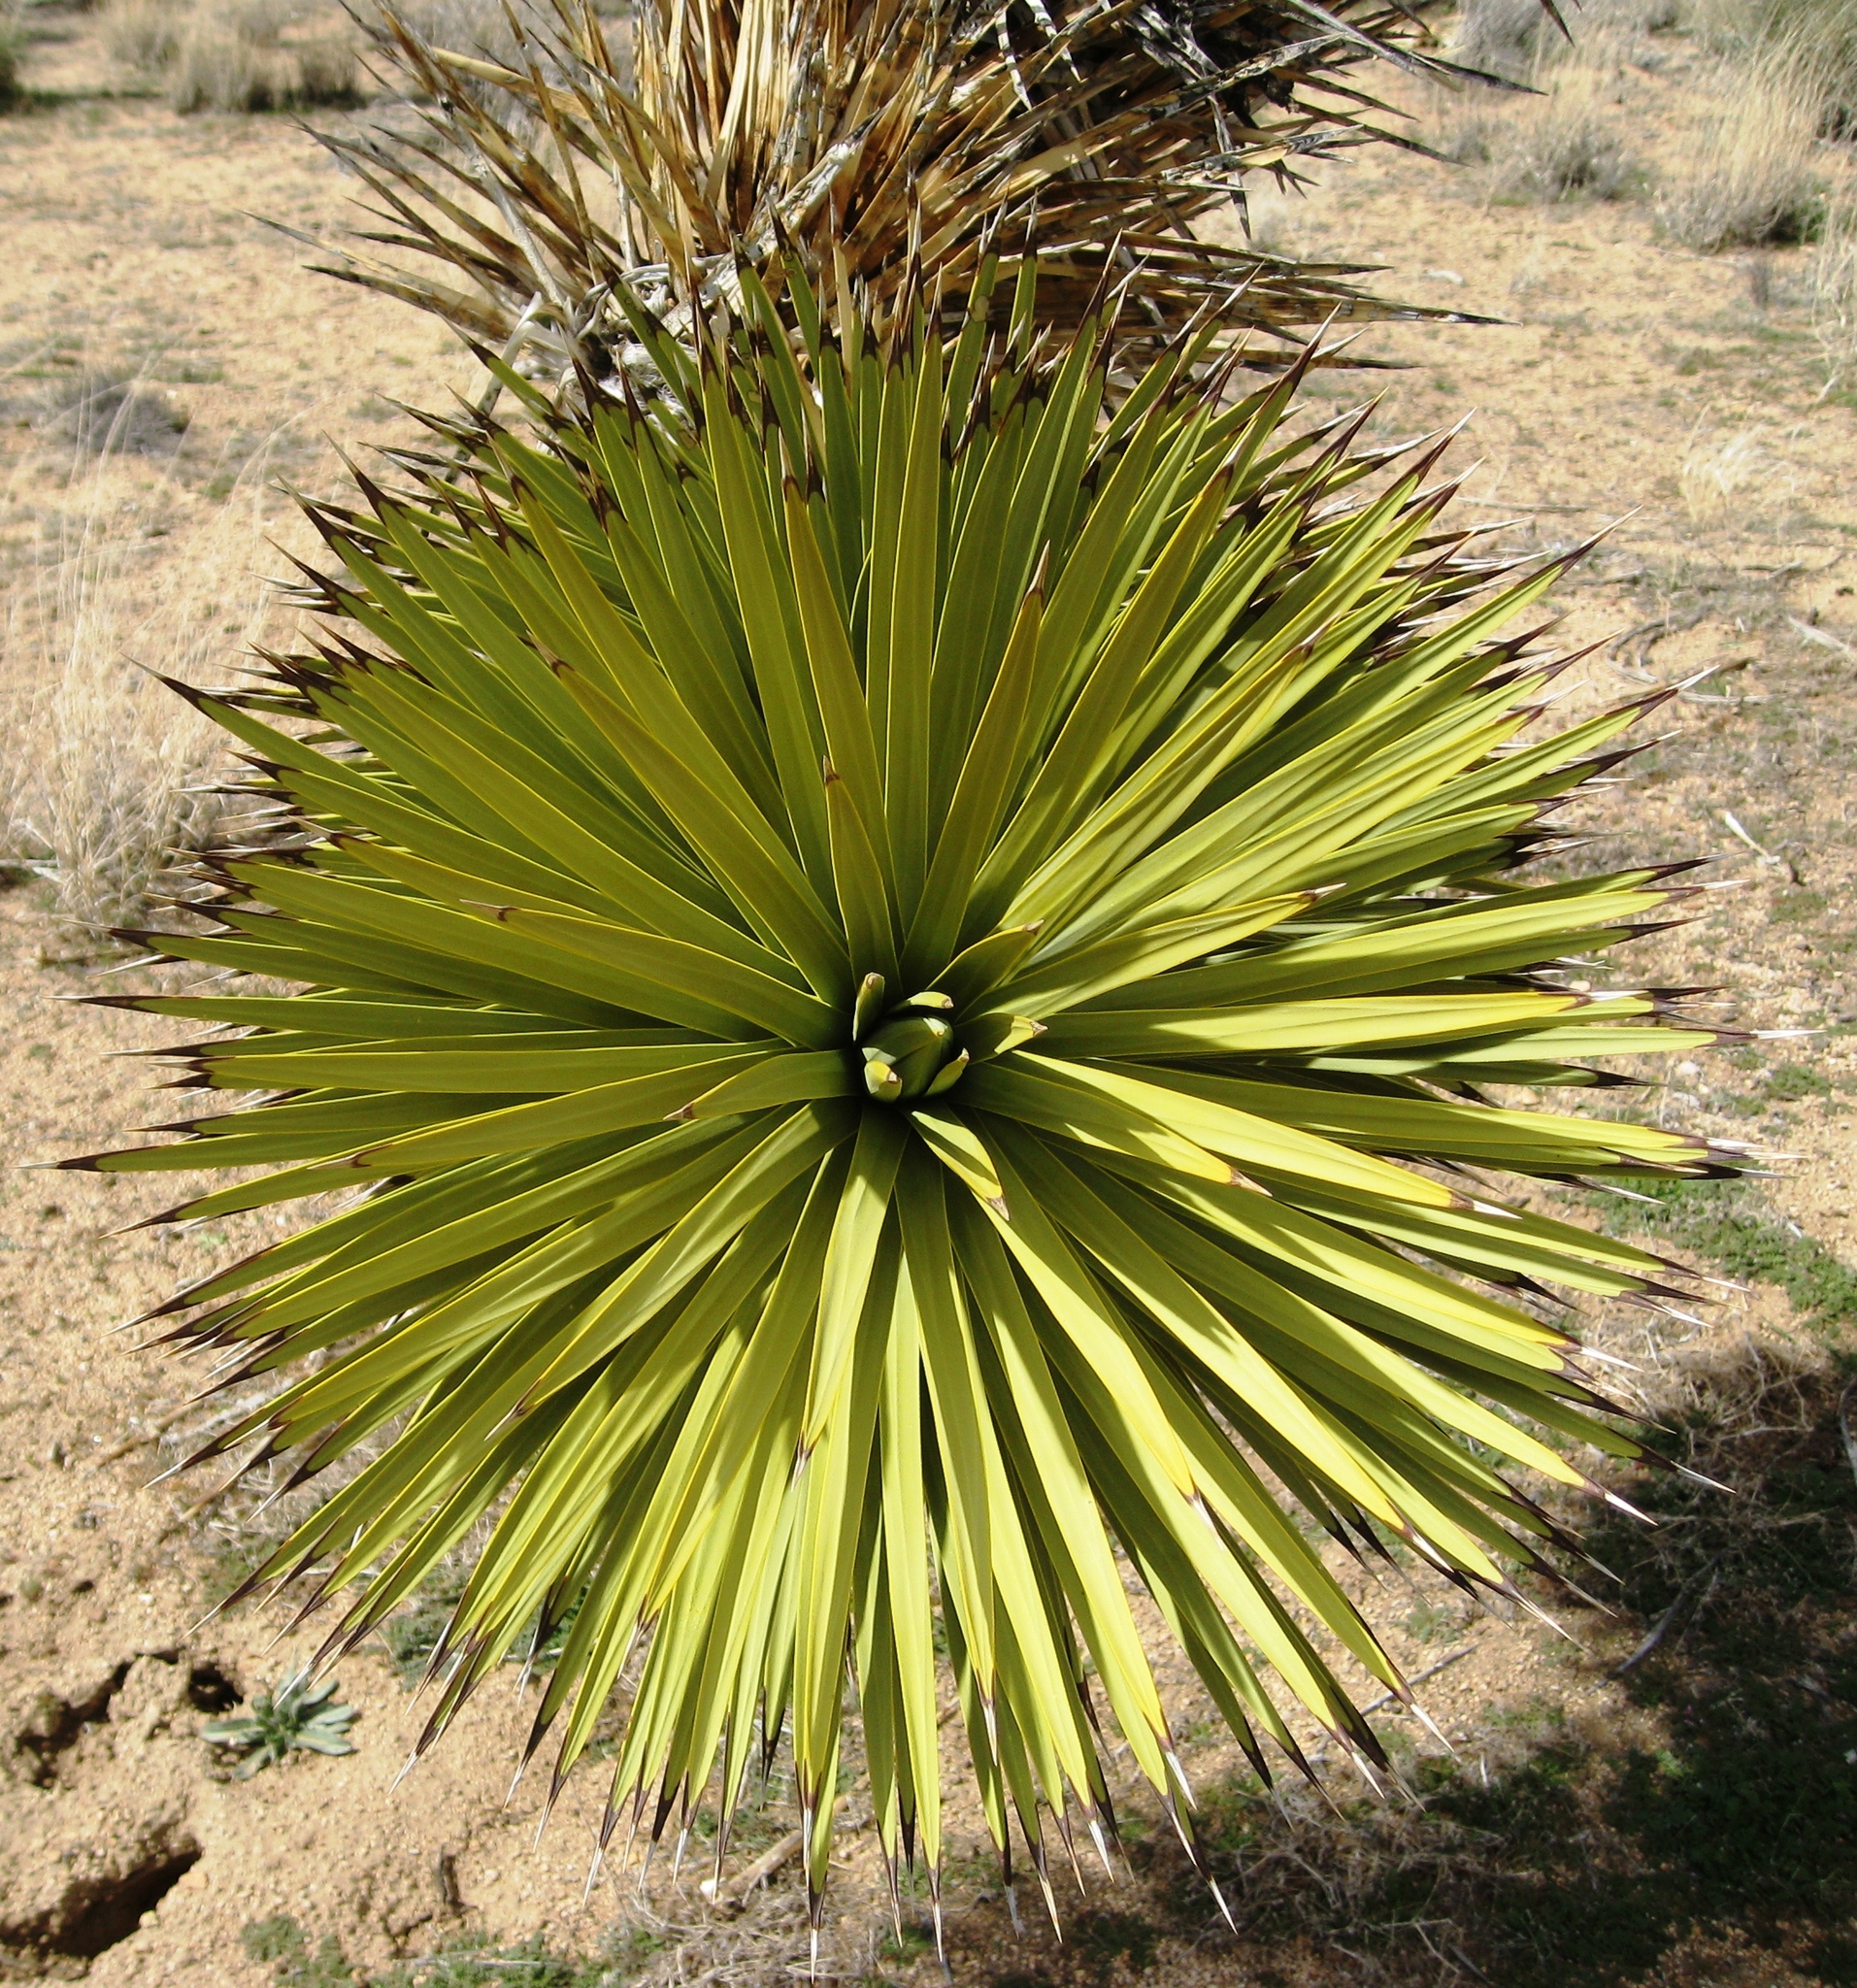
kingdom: Plantae
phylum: Tracheophyta
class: Liliopsida
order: Asparagales
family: Asparagaceae
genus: Yucca
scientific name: Yucca brevifolia
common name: Joshua tree
